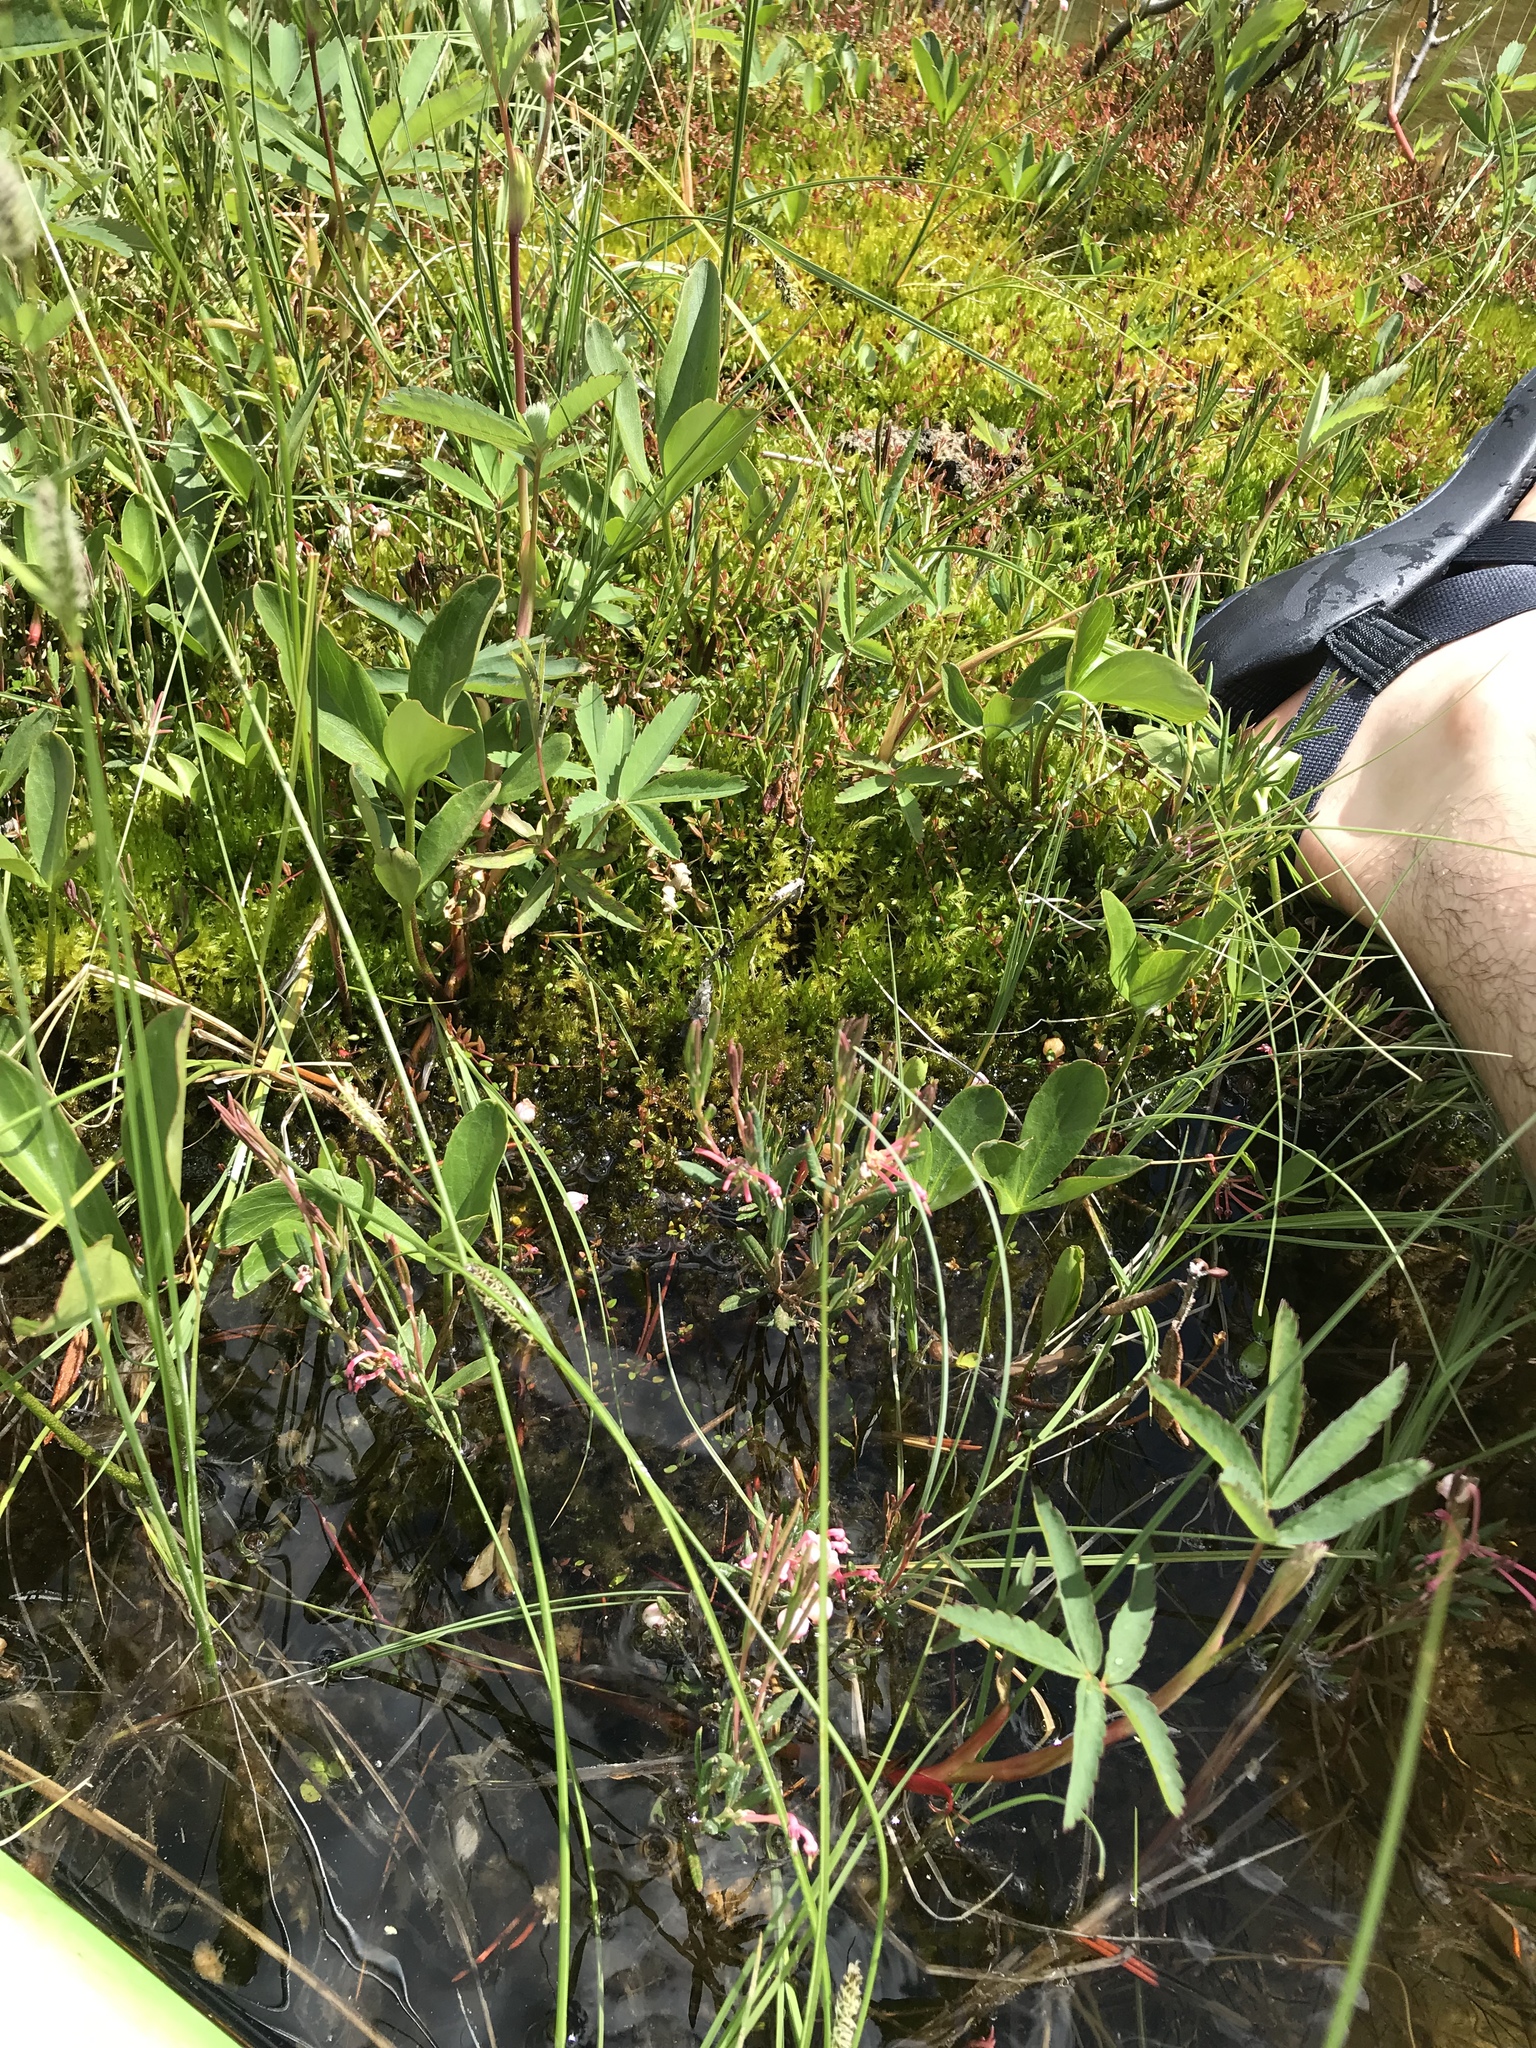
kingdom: Plantae
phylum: Tracheophyta
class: Magnoliopsida
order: Ericales
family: Ericaceae
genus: Andromeda
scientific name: Andromeda polifolia
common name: Bog-rosemary
